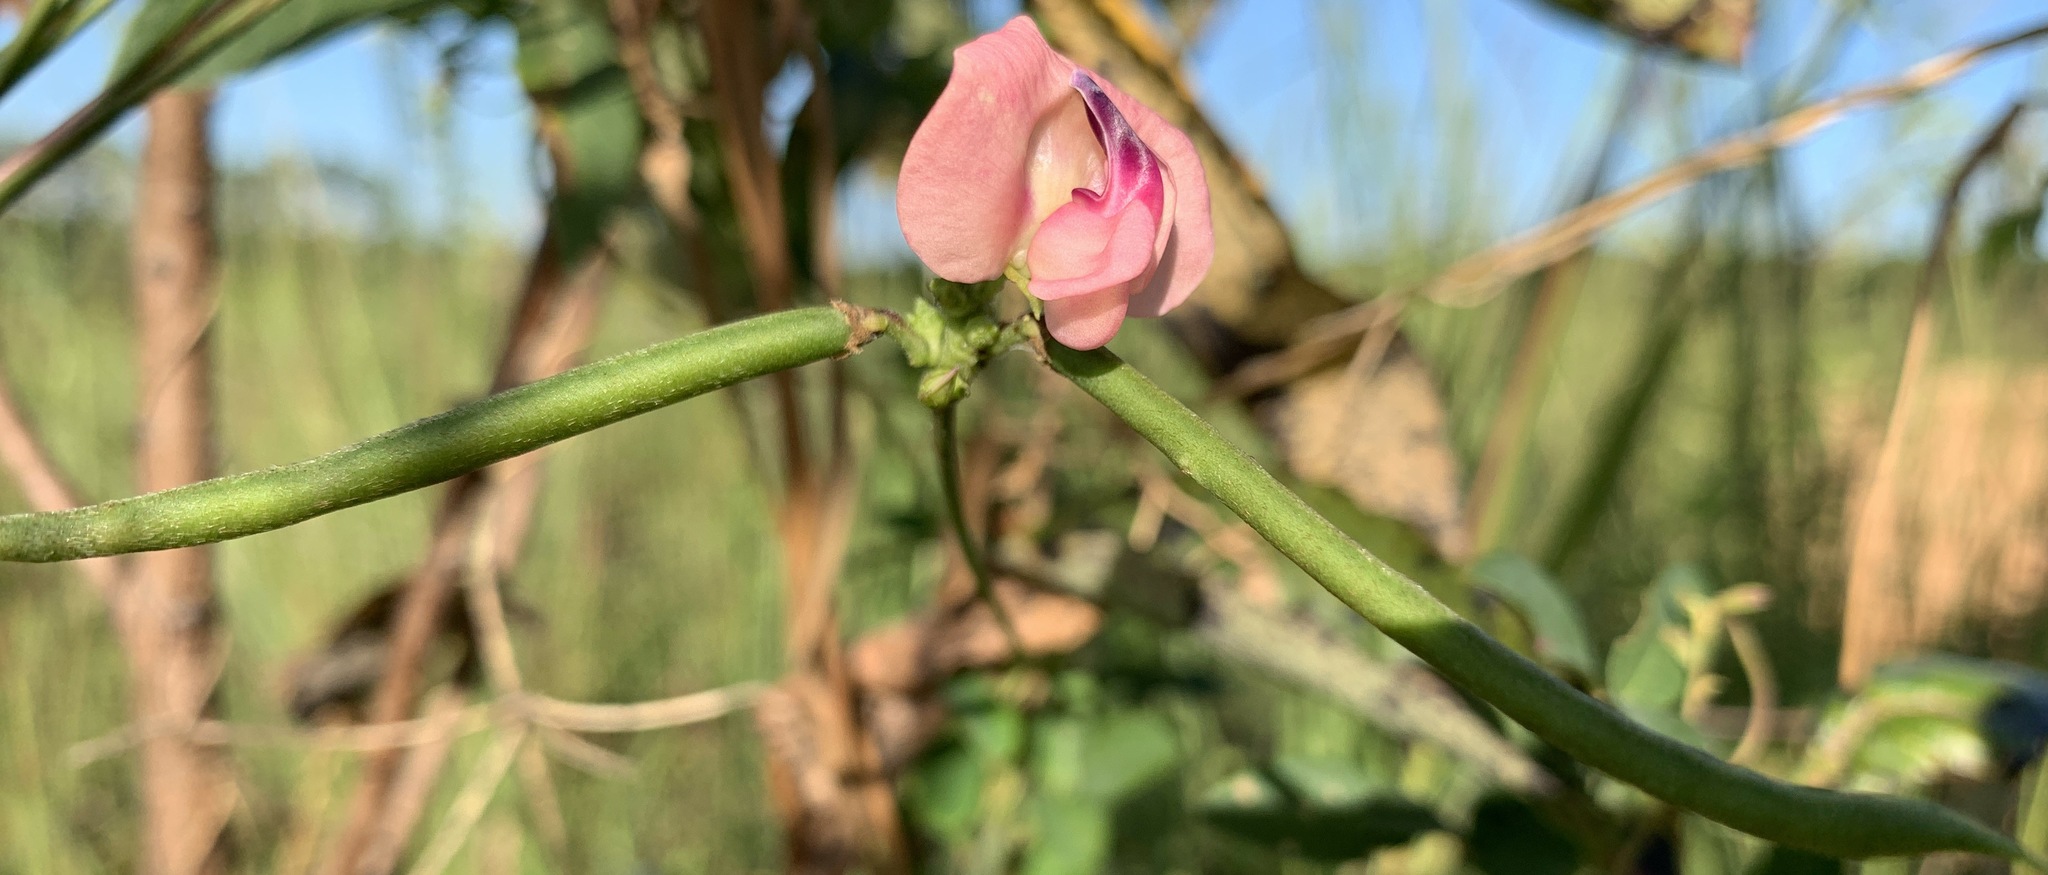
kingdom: Plantae
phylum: Tracheophyta
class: Magnoliopsida
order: Fabales
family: Fabaceae
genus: Strophostyles
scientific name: Strophostyles umbellata
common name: Perennial wild bean
